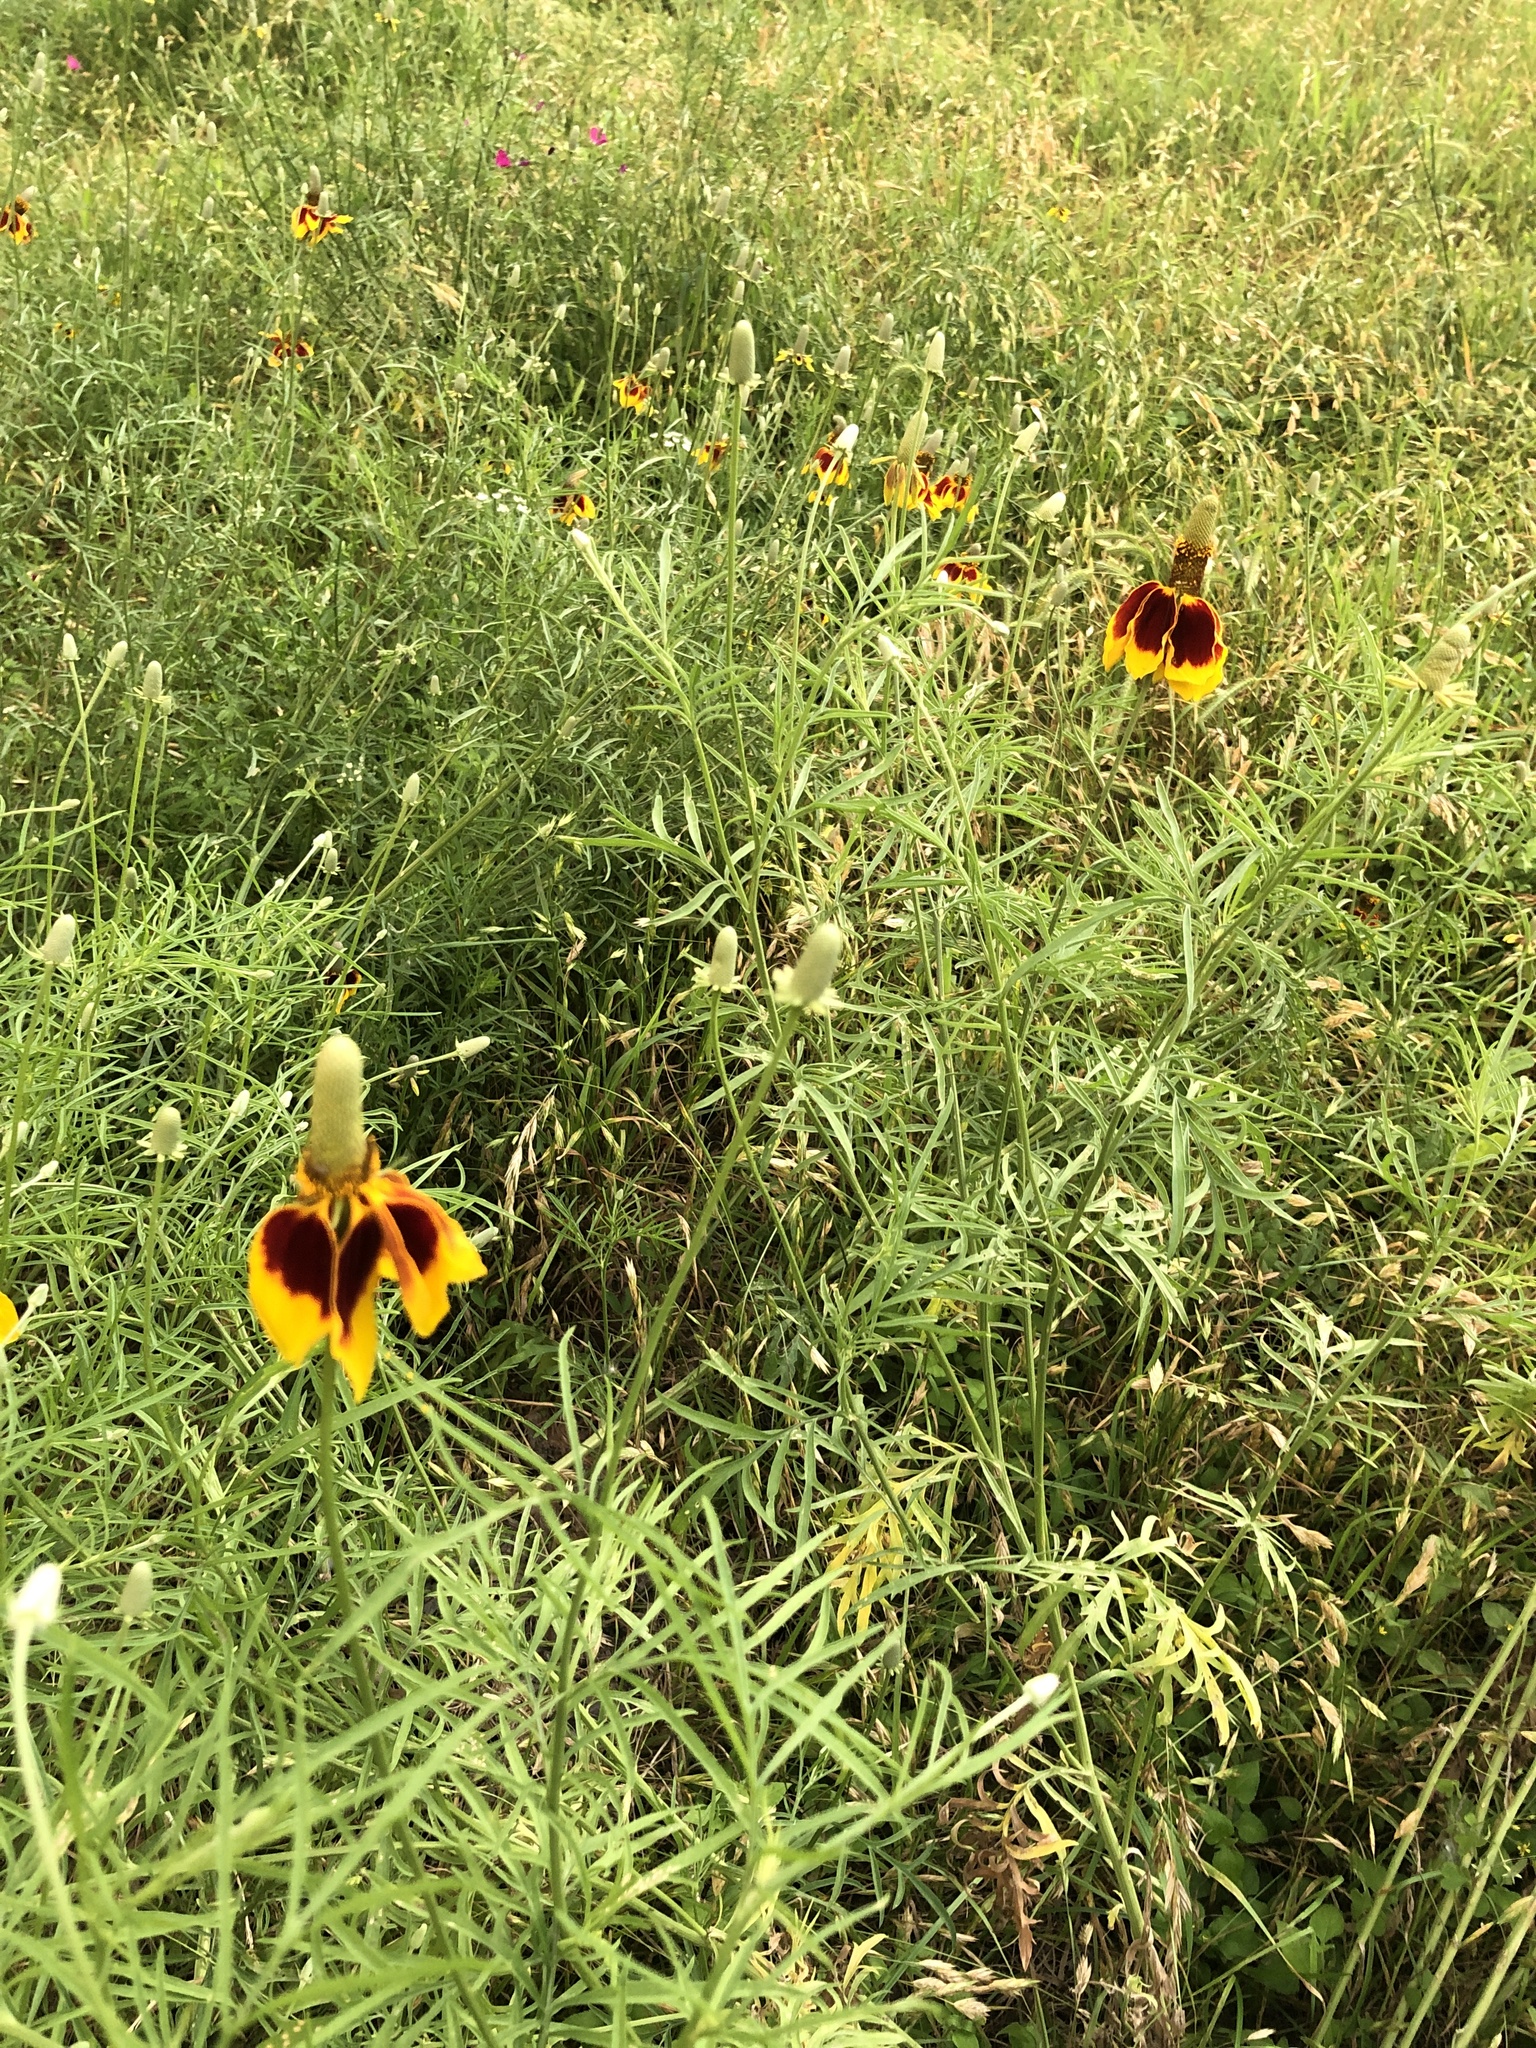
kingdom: Plantae
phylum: Tracheophyta
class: Magnoliopsida
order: Asterales
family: Asteraceae
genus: Ratibida
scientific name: Ratibida columnifera
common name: Prairie coneflower
